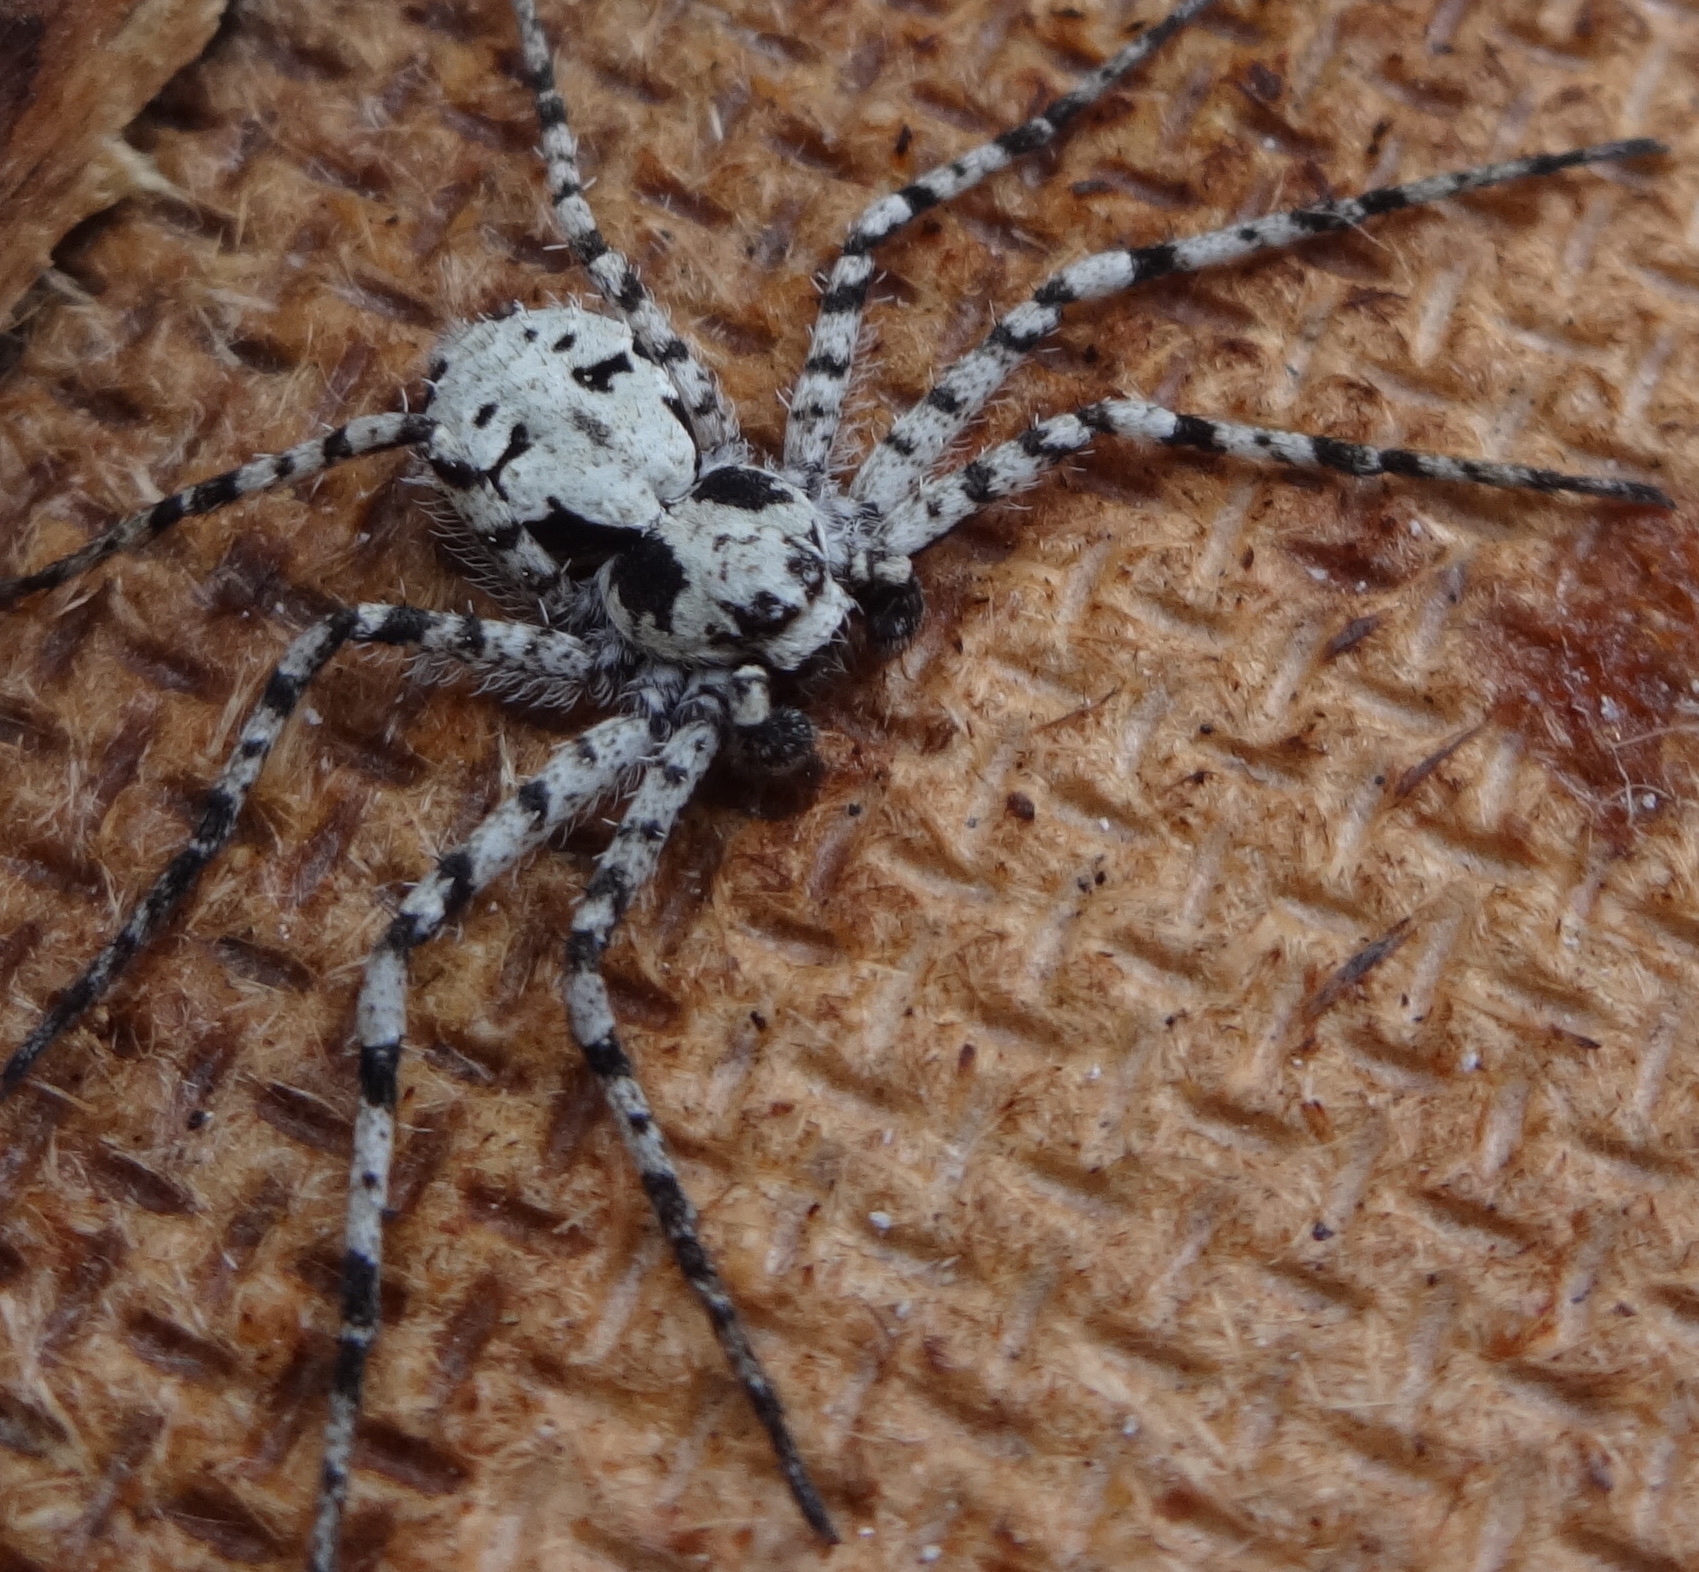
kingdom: Animalia
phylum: Arthropoda
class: Arachnida
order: Araneae
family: Philodromidae
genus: Philodromus
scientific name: Philodromus margaritatus
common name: Lichen running-spider
